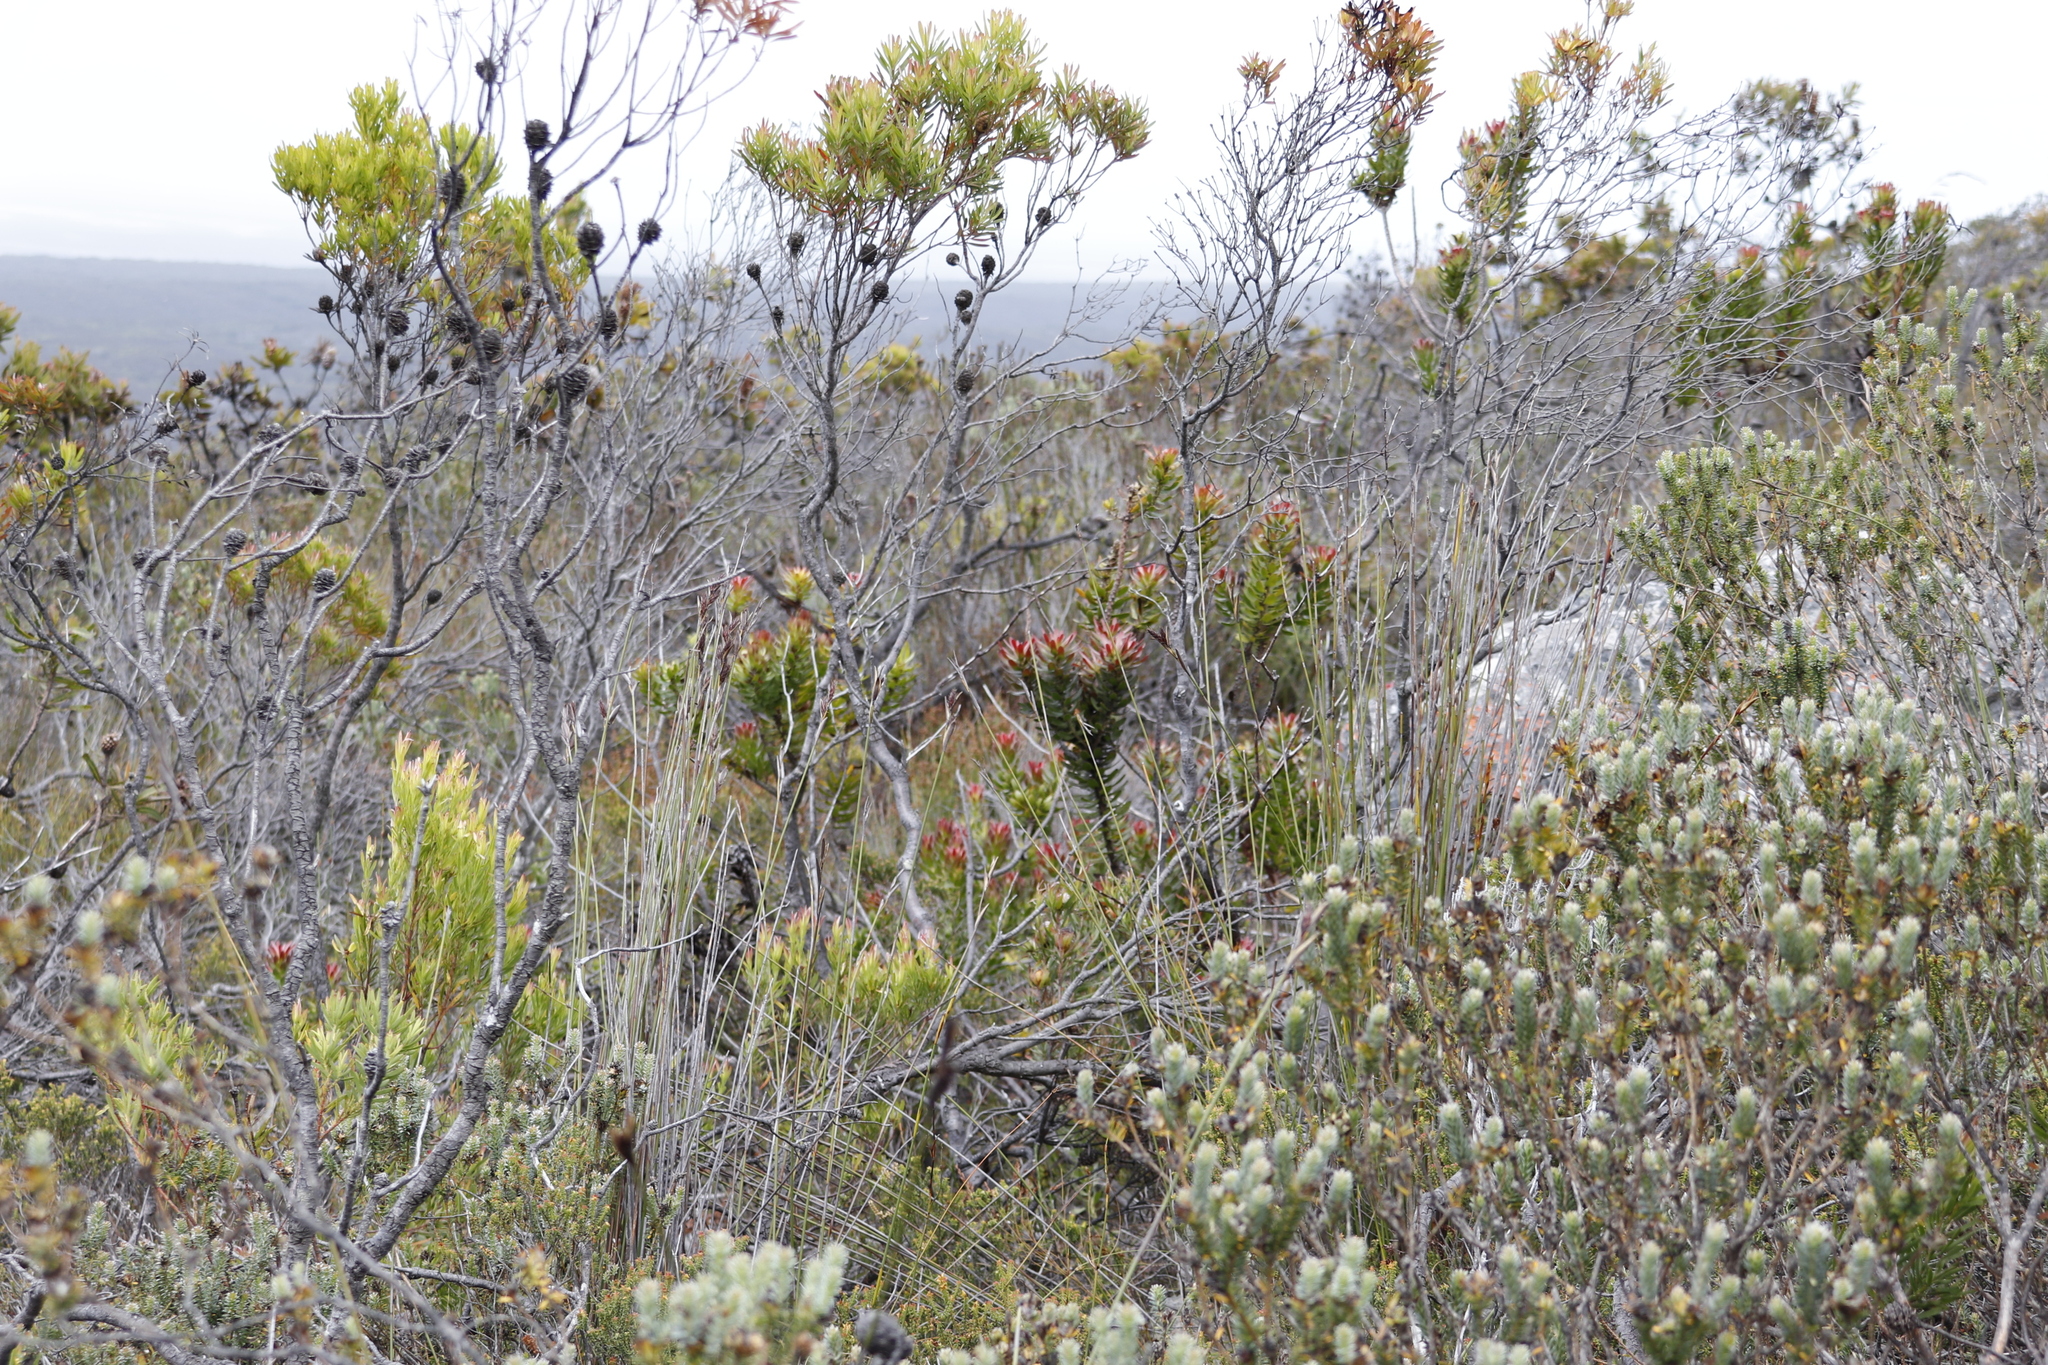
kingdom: Plantae
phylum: Tracheophyta
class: Magnoliopsida
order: Proteales
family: Proteaceae
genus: Mimetes
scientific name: Mimetes cucullatus
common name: Common pagoda
